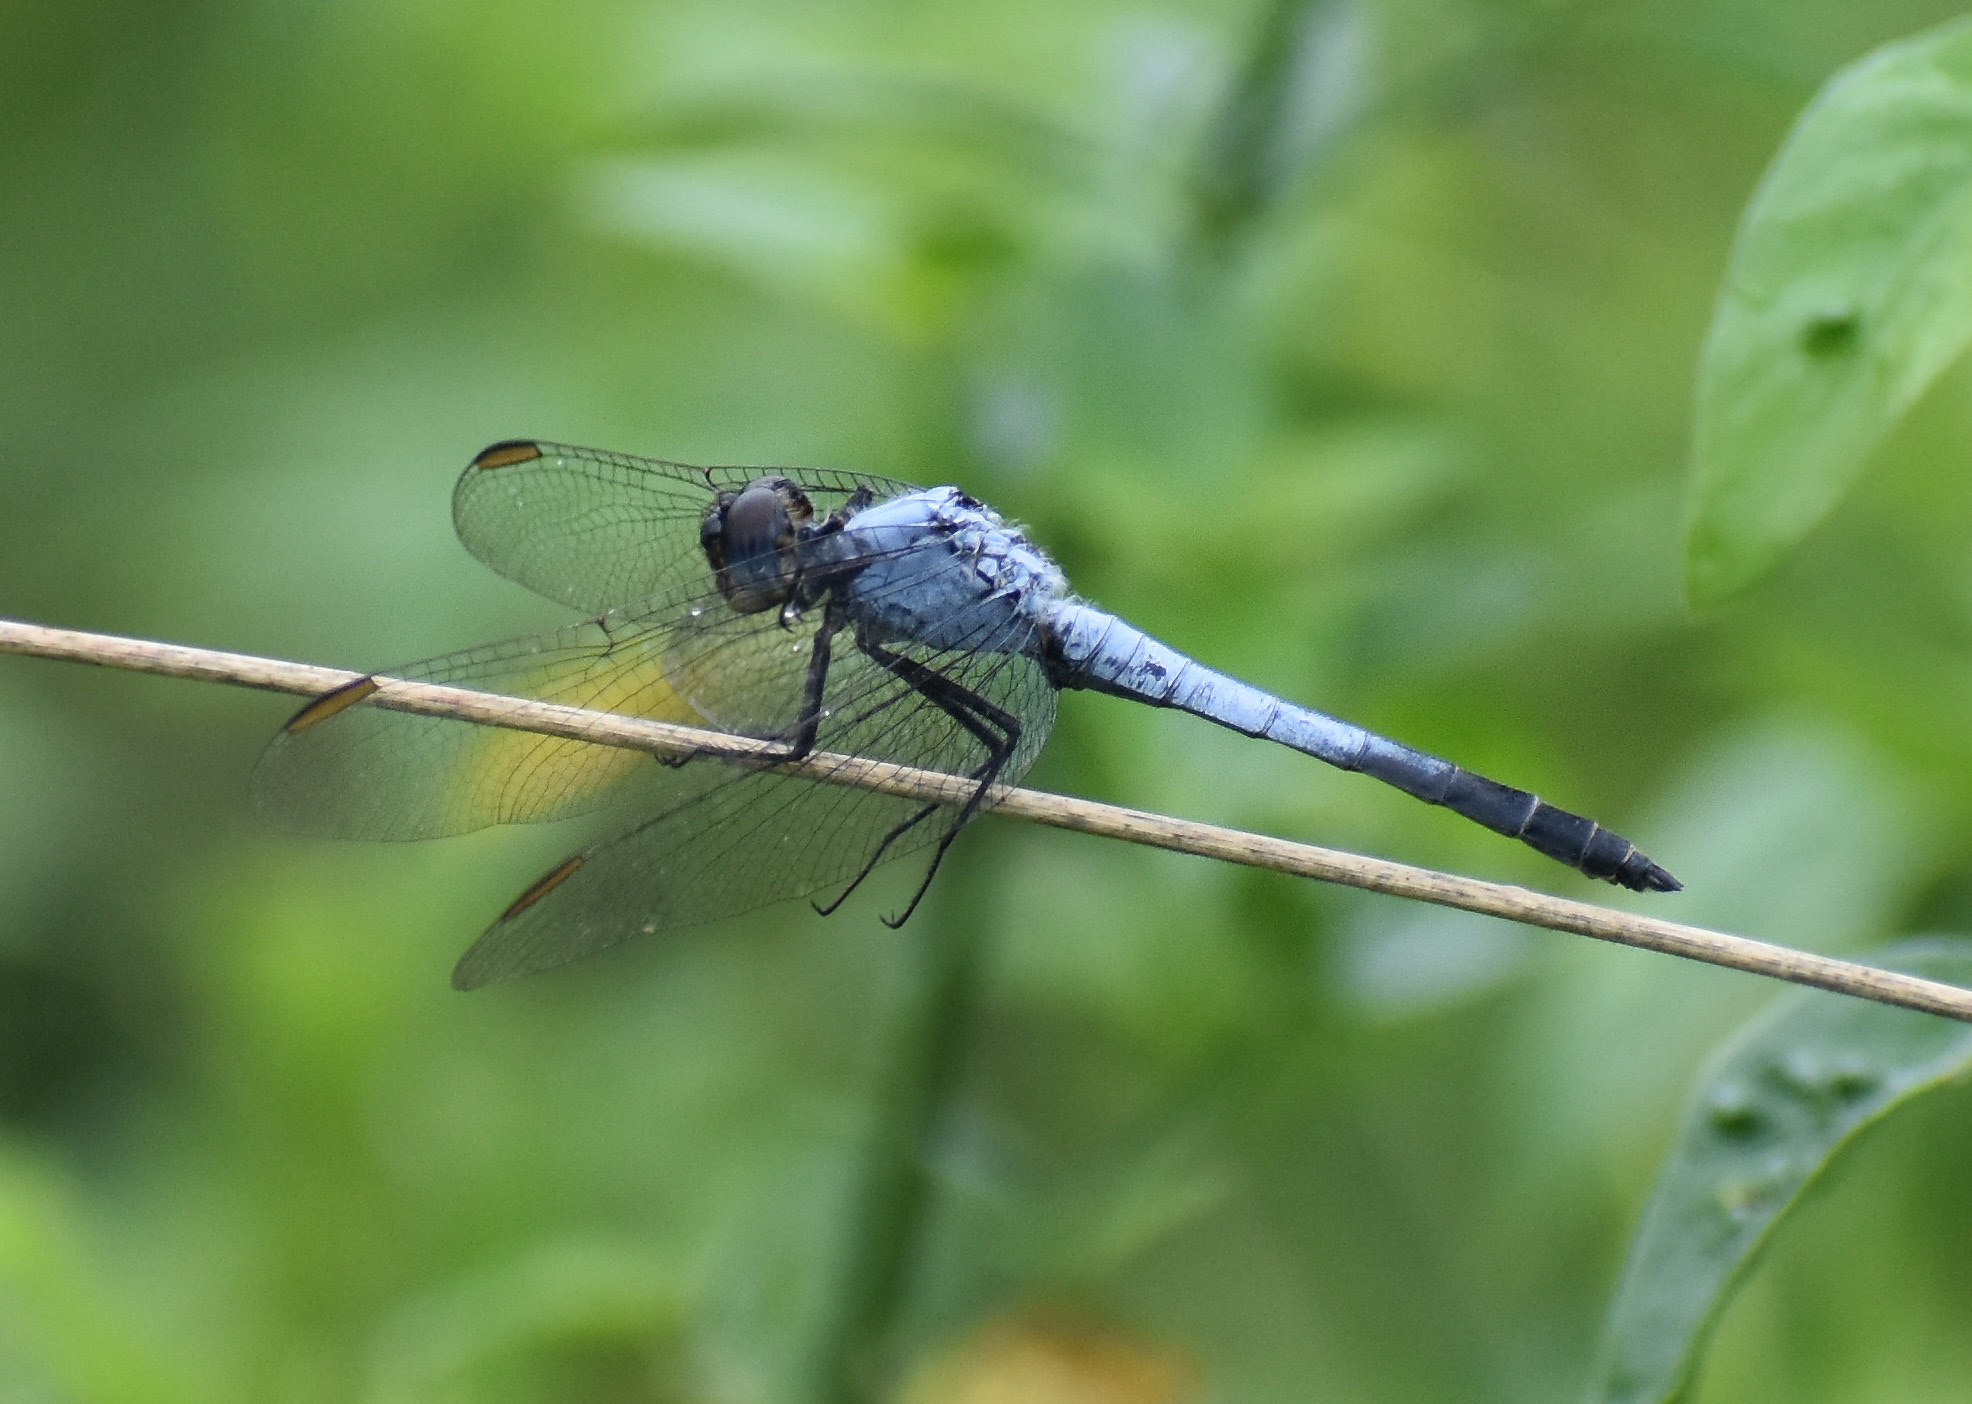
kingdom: Animalia
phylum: Arthropoda
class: Insecta
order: Odonata
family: Libellulidae
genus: Nesciothemis
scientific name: Nesciothemis farinosa
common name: Eastern blacktail
